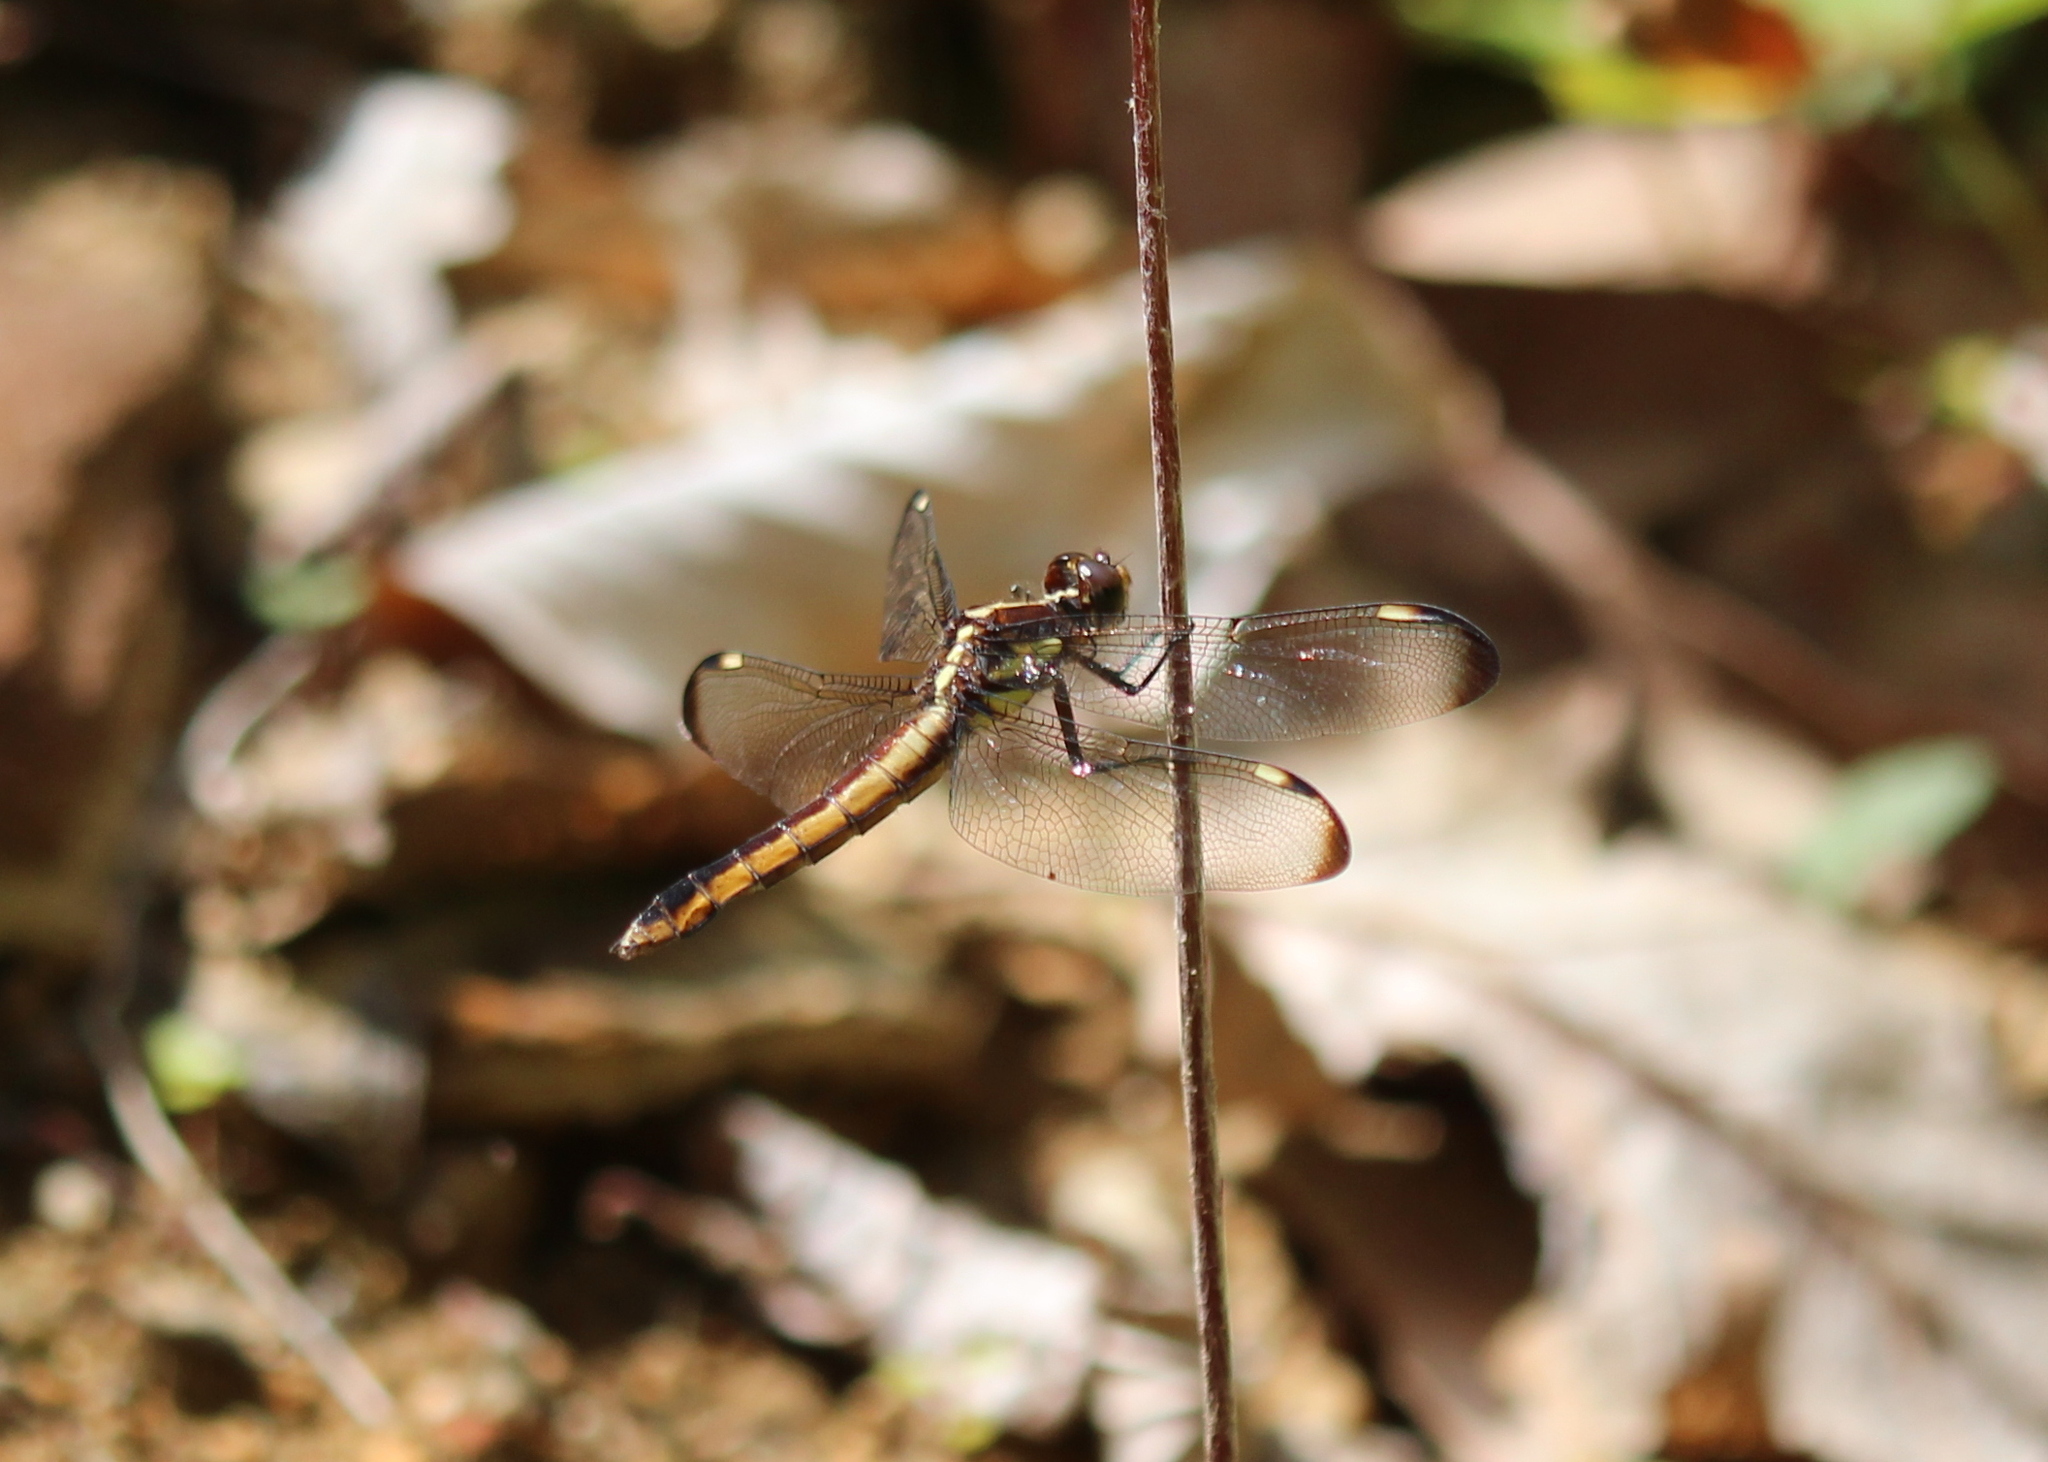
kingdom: Animalia
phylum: Arthropoda
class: Insecta
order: Odonata
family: Libellulidae
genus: Libellula
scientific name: Libellula cyanea
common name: Spangled skimmer
